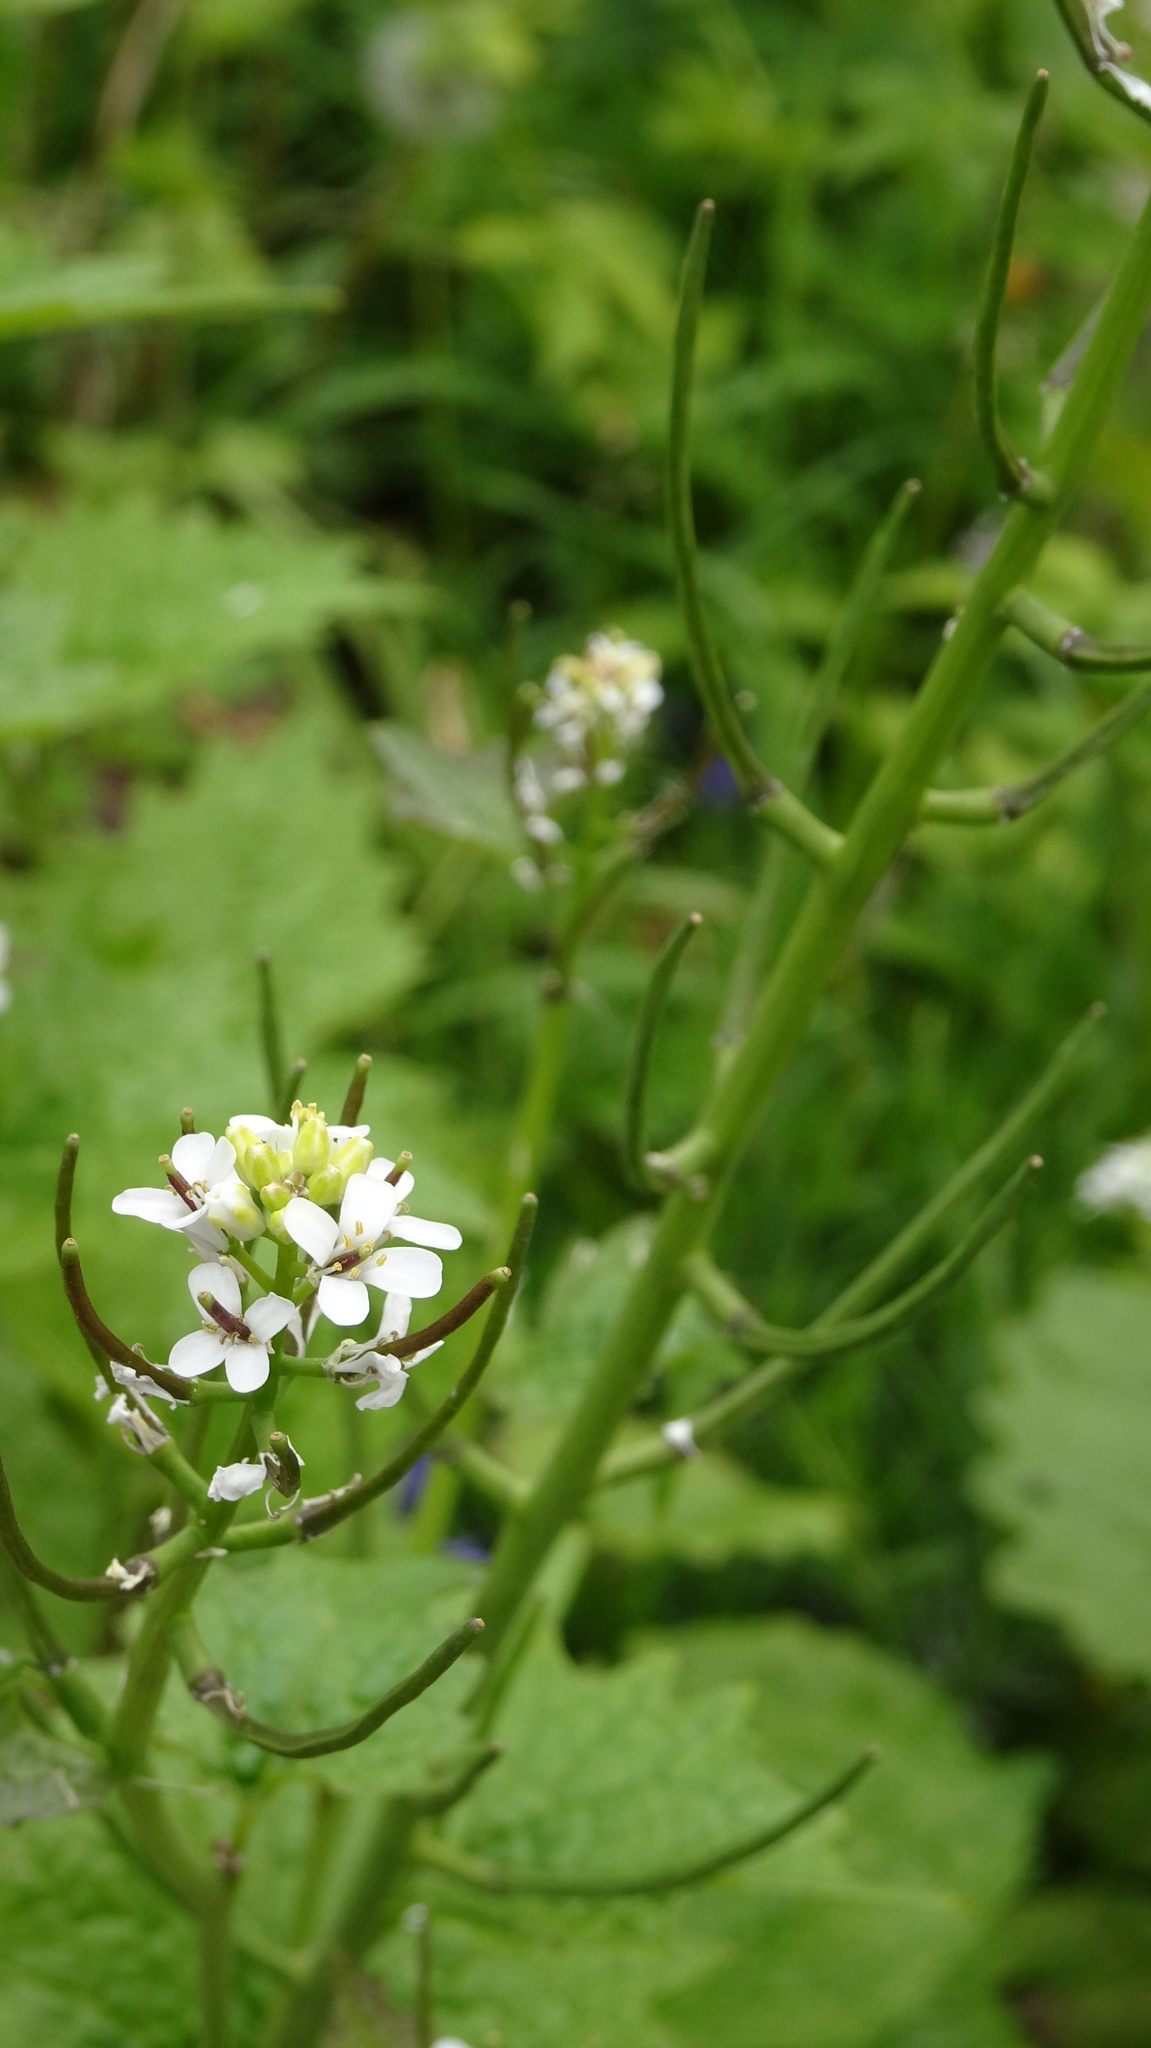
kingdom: Plantae
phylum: Tracheophyta
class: Magnoliopsida
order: Brassicales
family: Brassicaceae
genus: Alliaria
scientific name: Alliaria petiolata
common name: Garlic mustard
